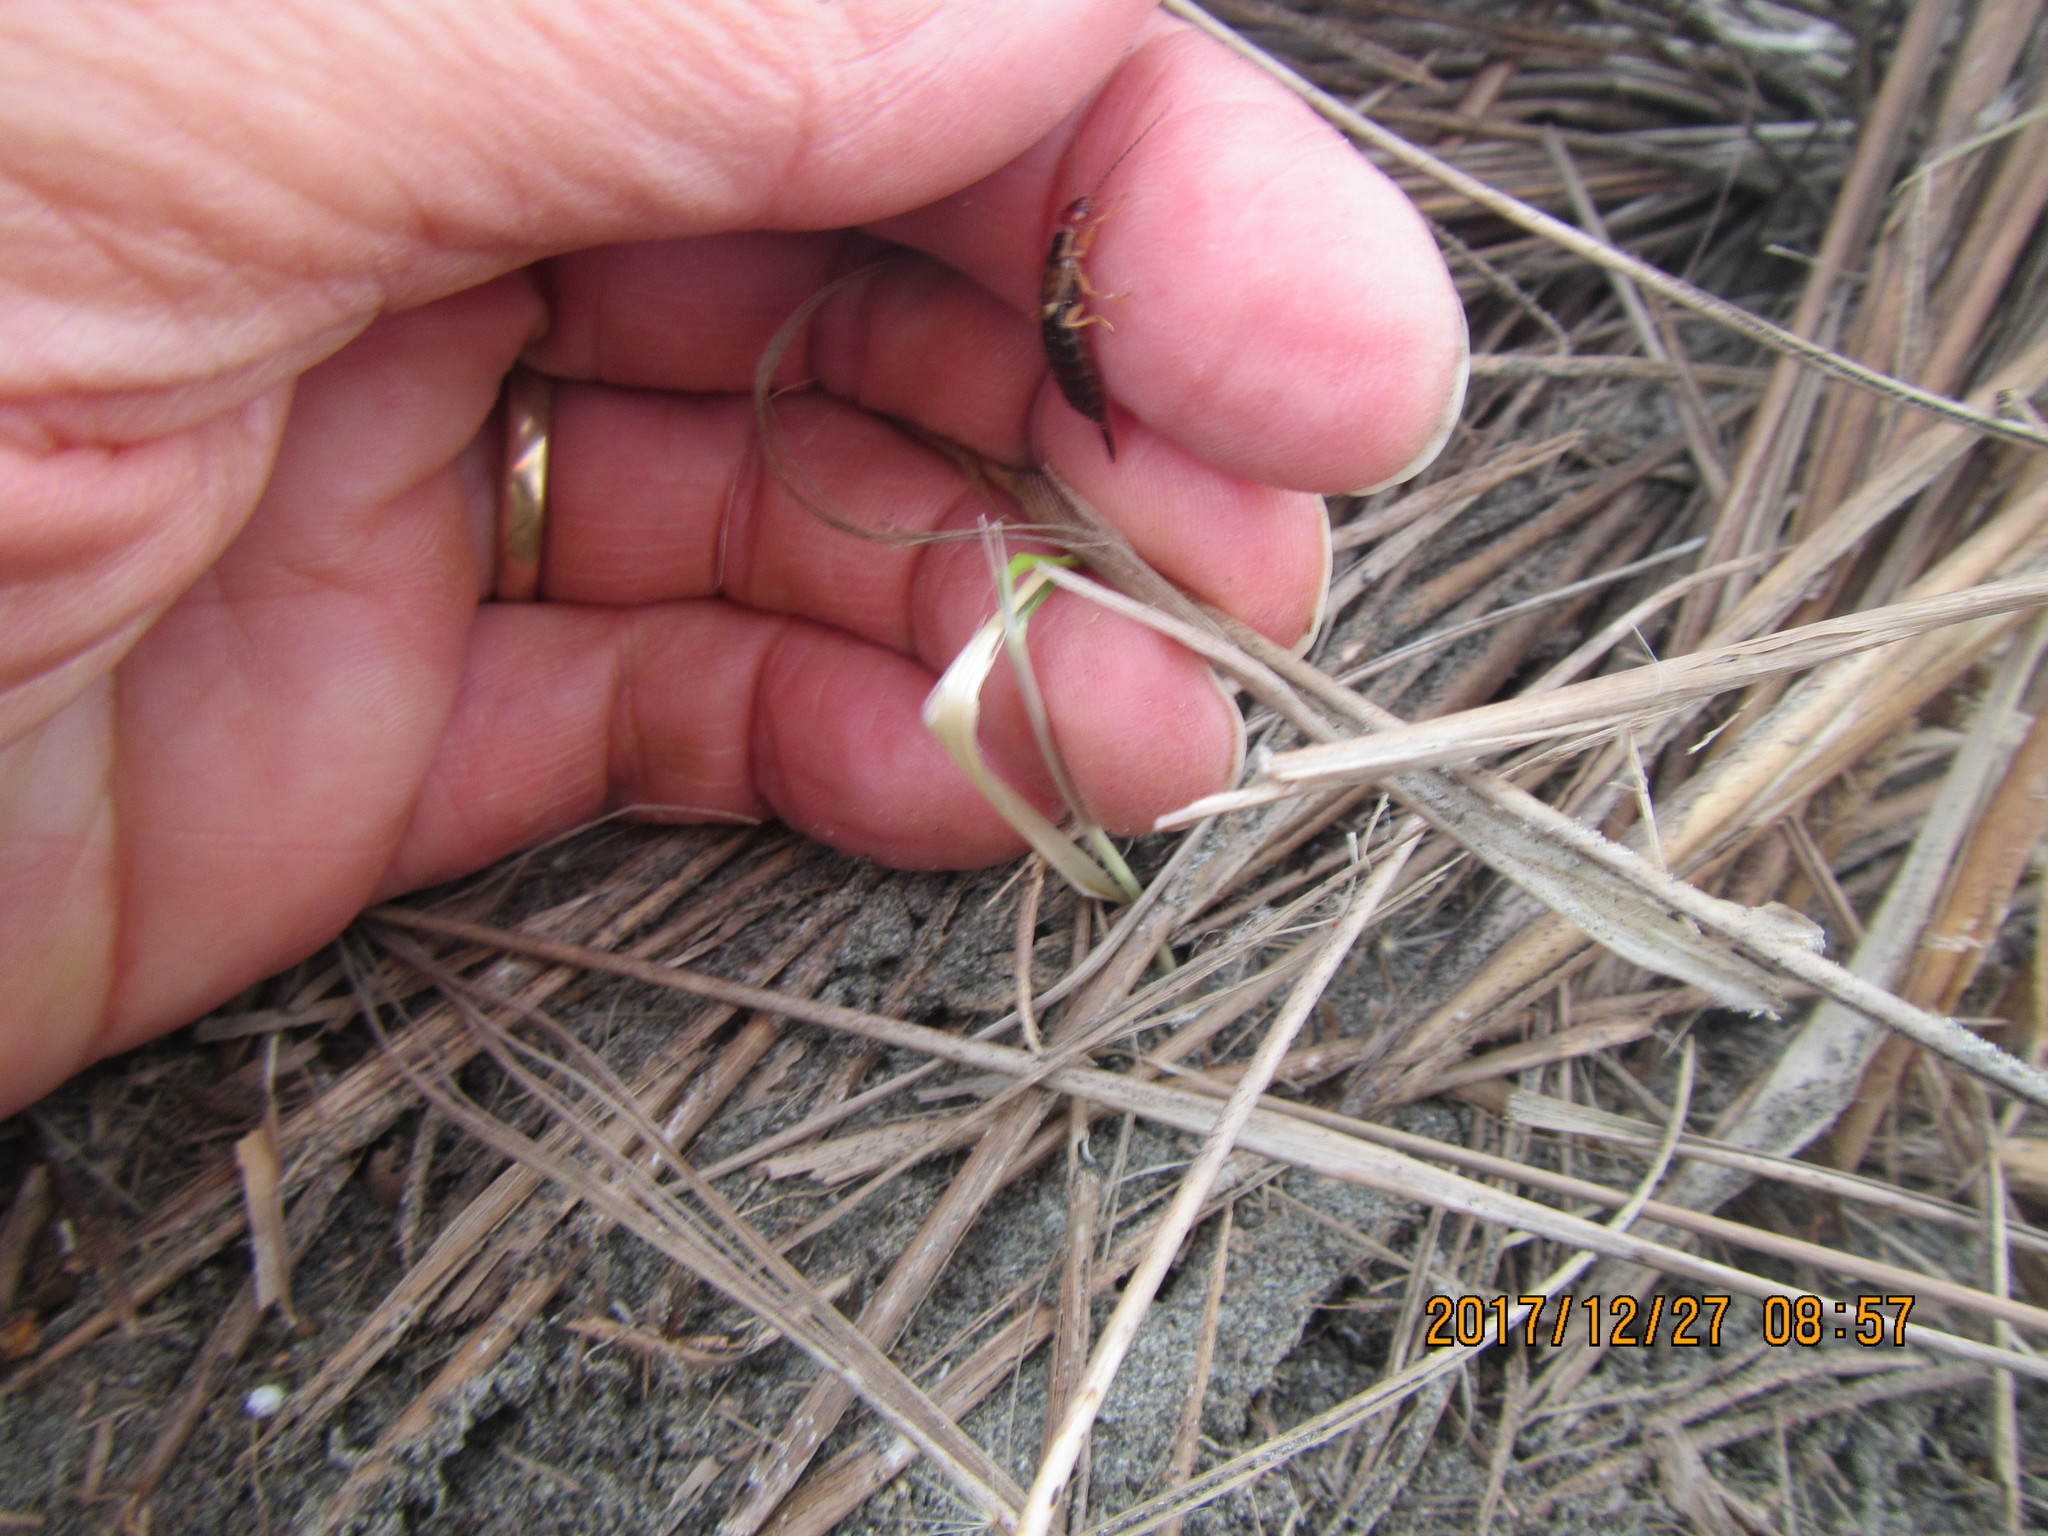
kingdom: Animalia
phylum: Arthropoda
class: Insecta
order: Dermaptera
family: Forficulidae
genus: Forficula
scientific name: Forficula
